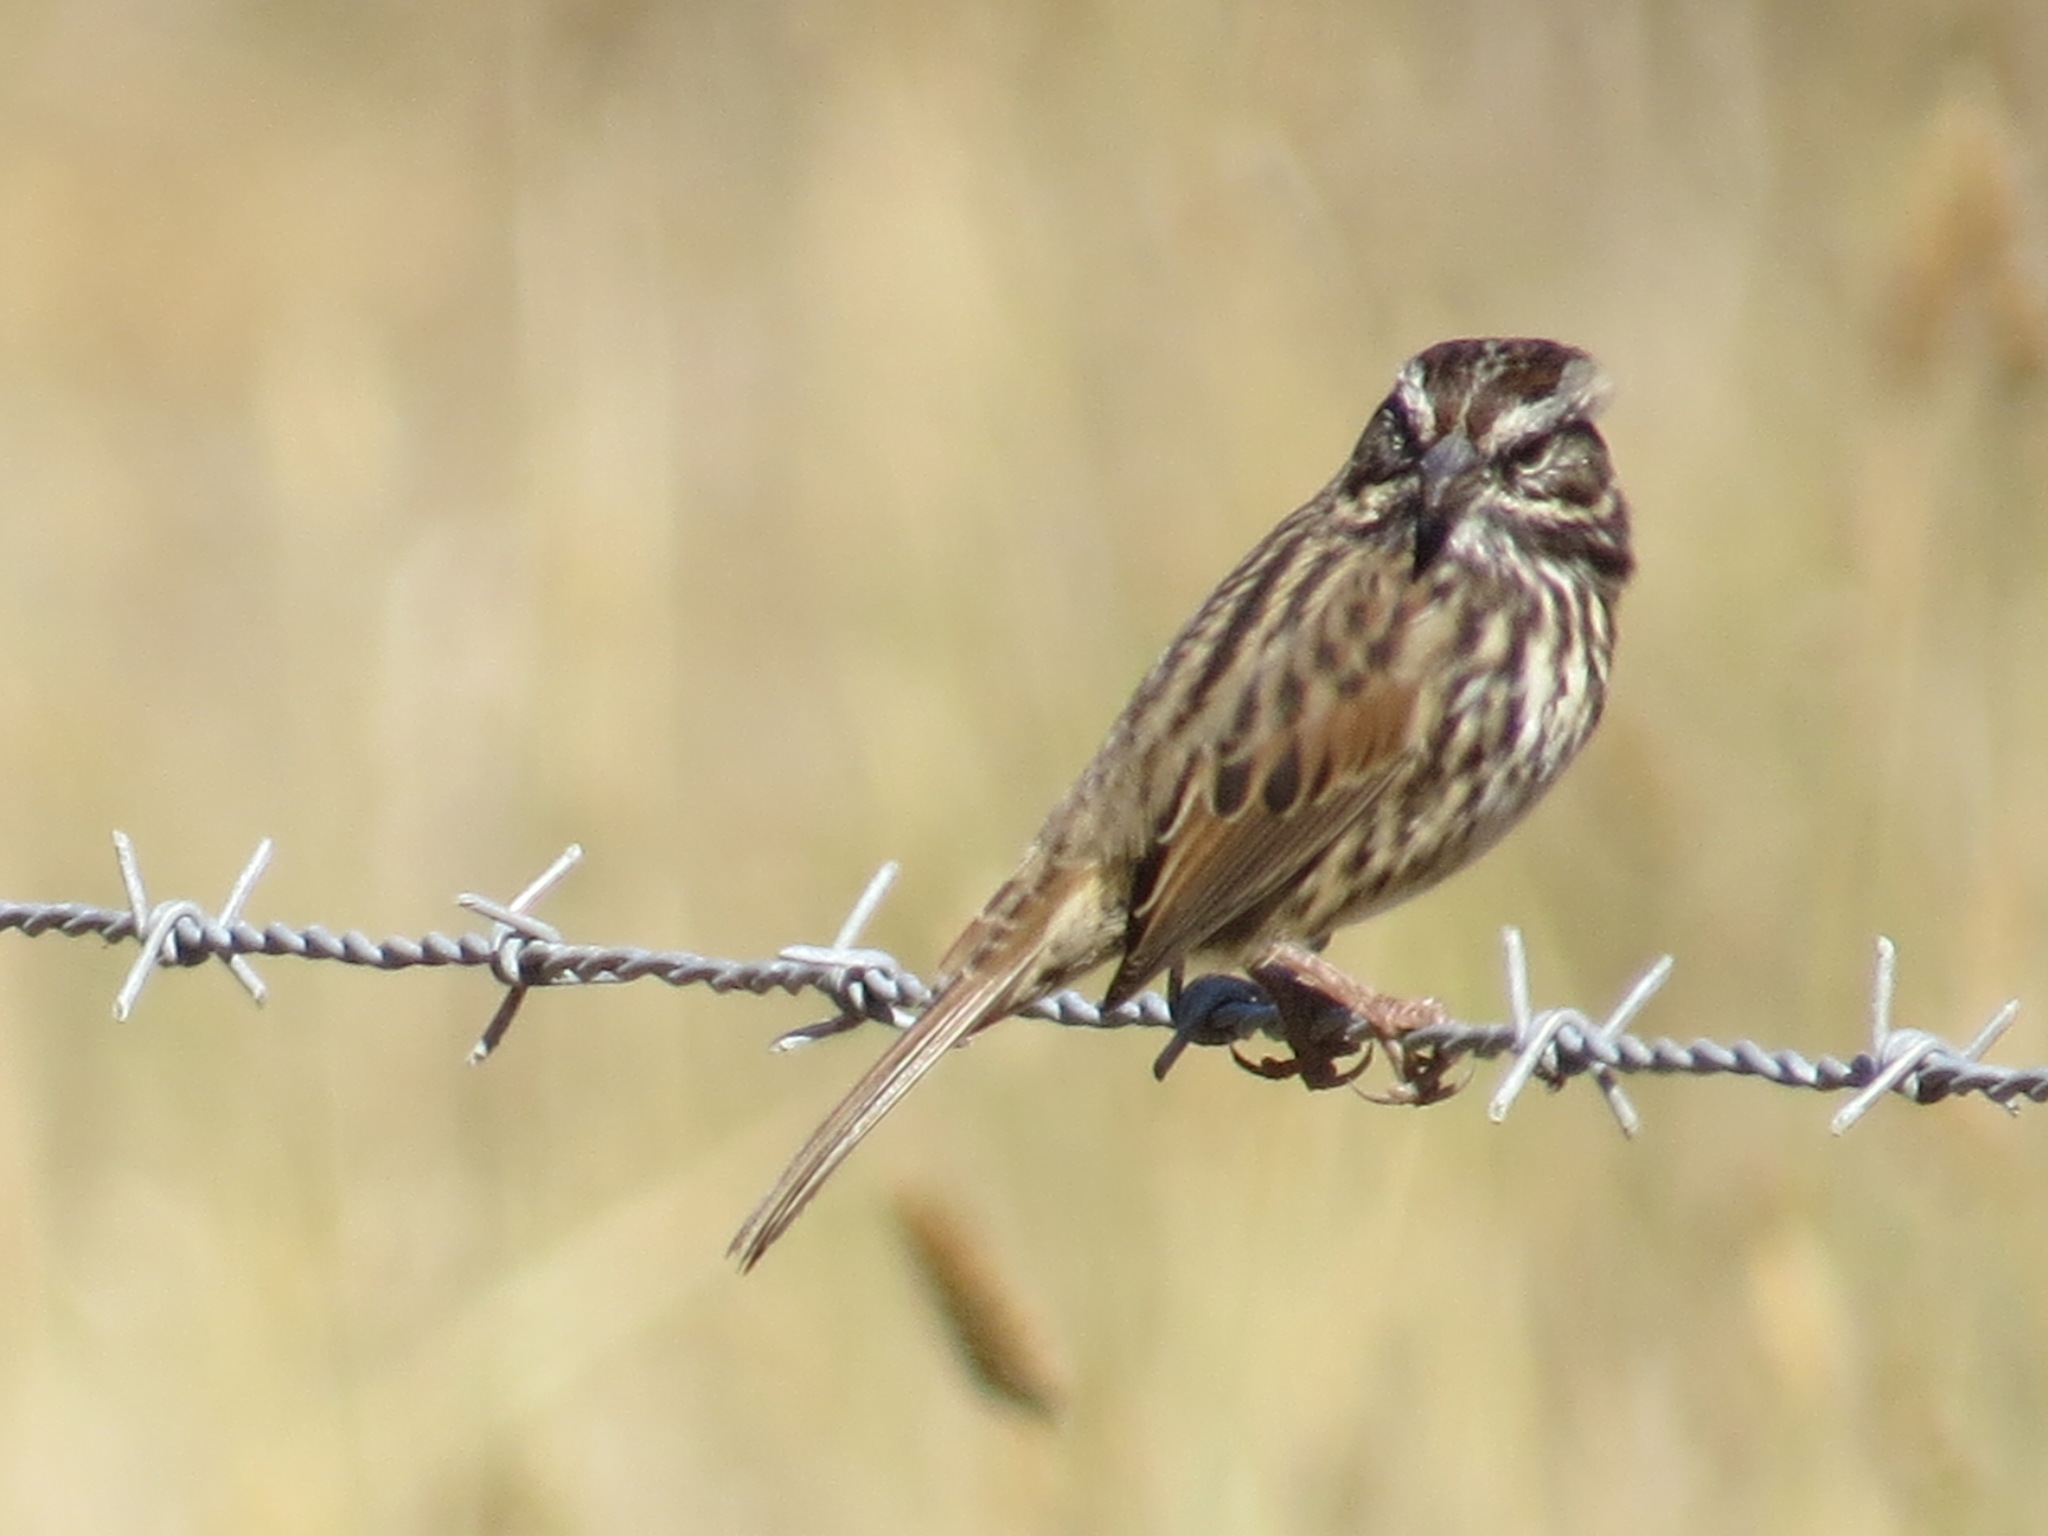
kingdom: Animalia
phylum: Chordata
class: Aves
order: Passeriformes
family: Passerellidae
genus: Melospiza
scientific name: Melospiza melodia
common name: Song sparrow
